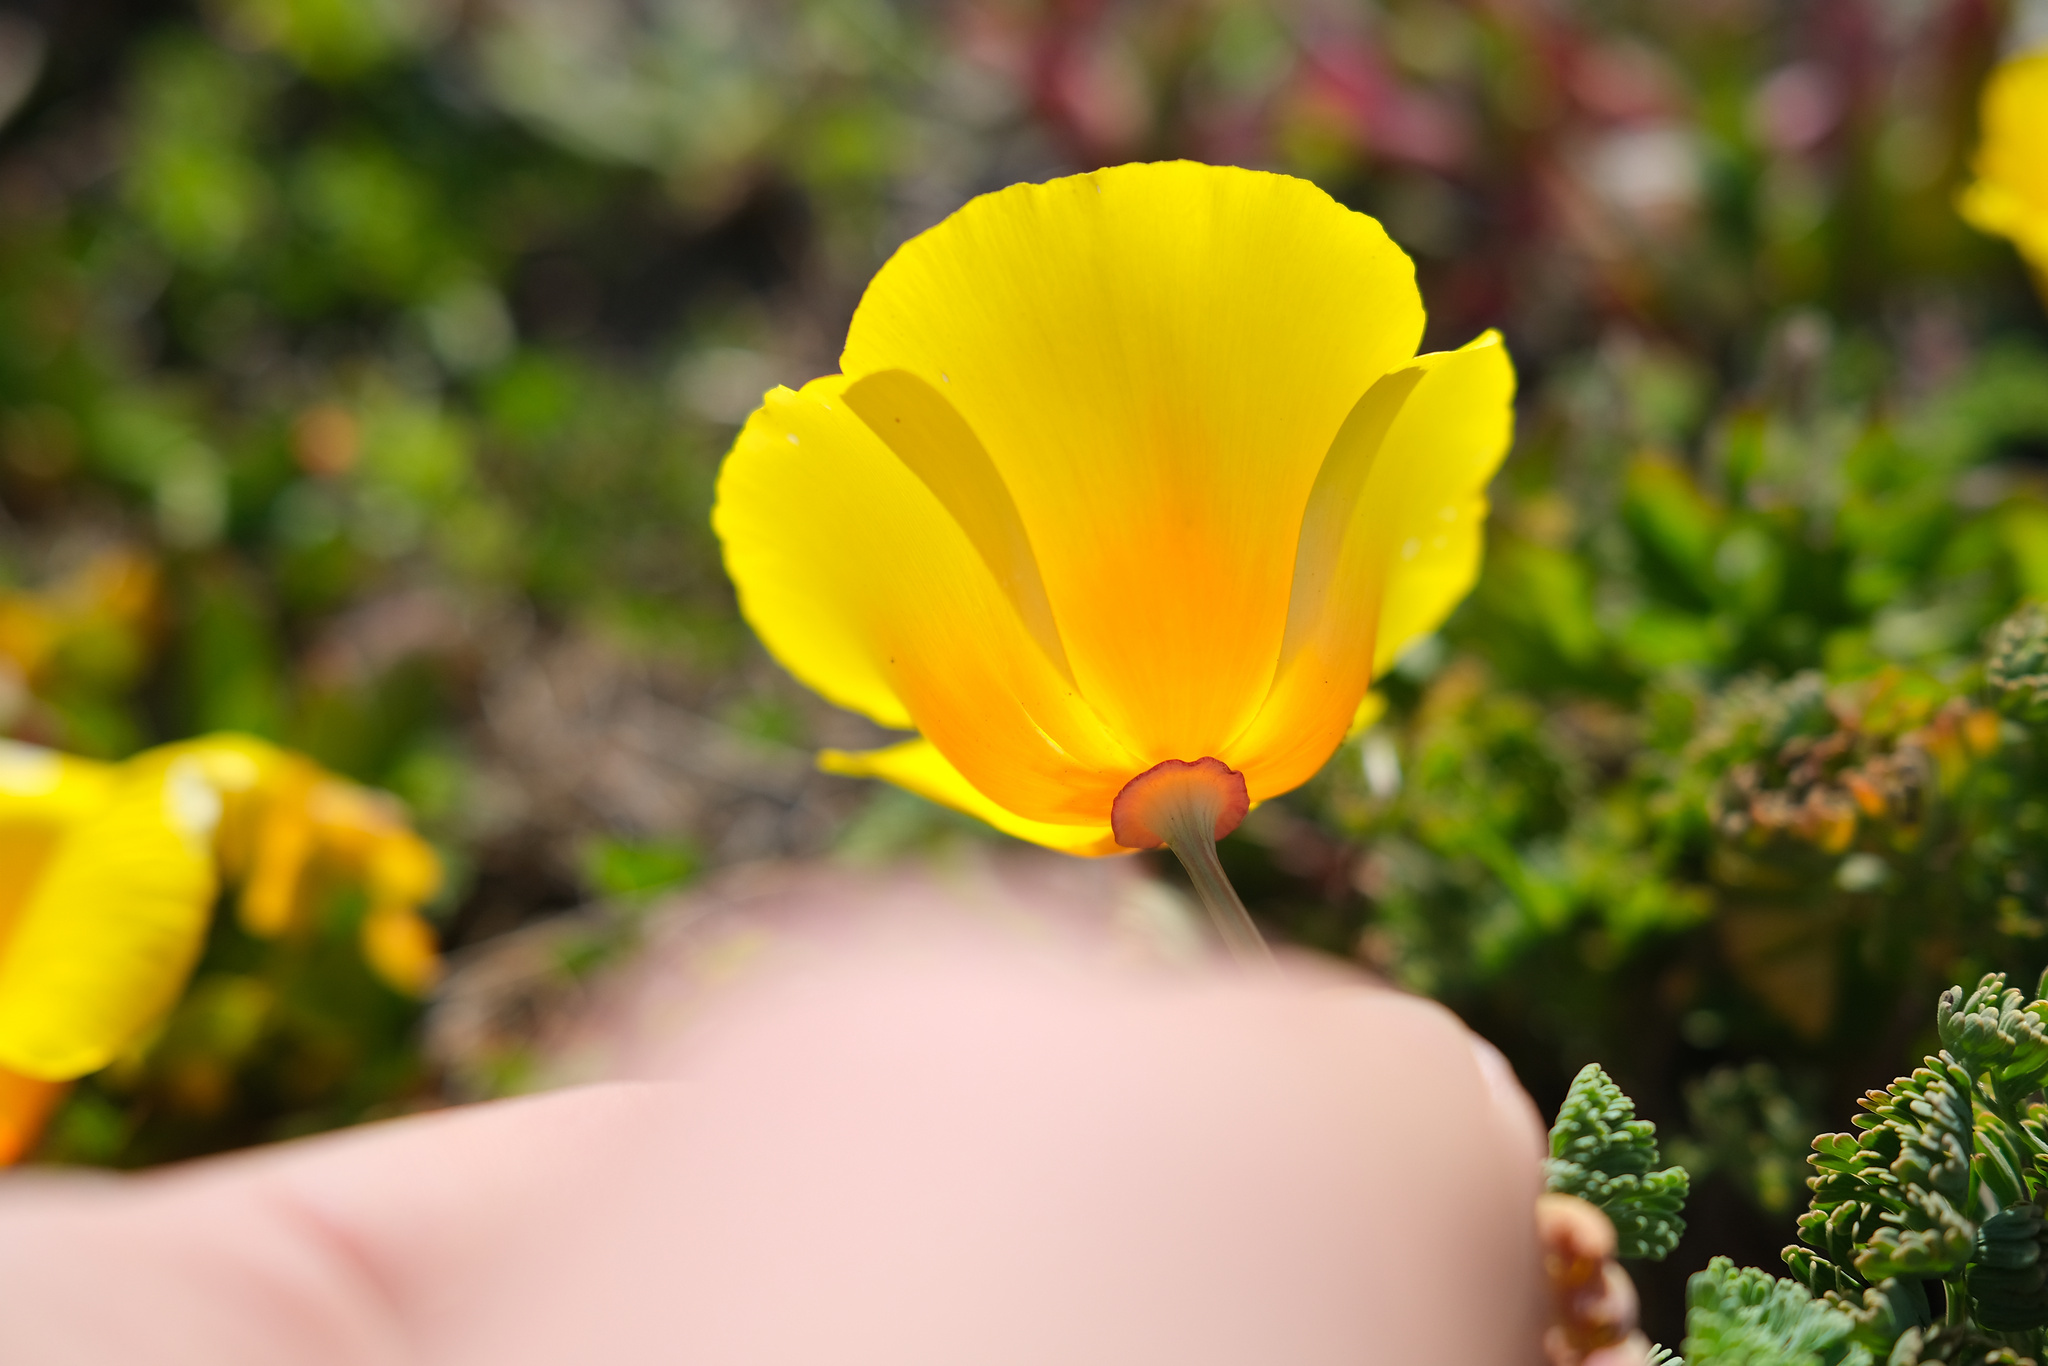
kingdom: Plantae
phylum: Tracheophyta
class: Magnoliopsida
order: Ranunculales
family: Papaveraceae
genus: Eschscholzia
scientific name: Eschscholzia californica
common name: California poppy
